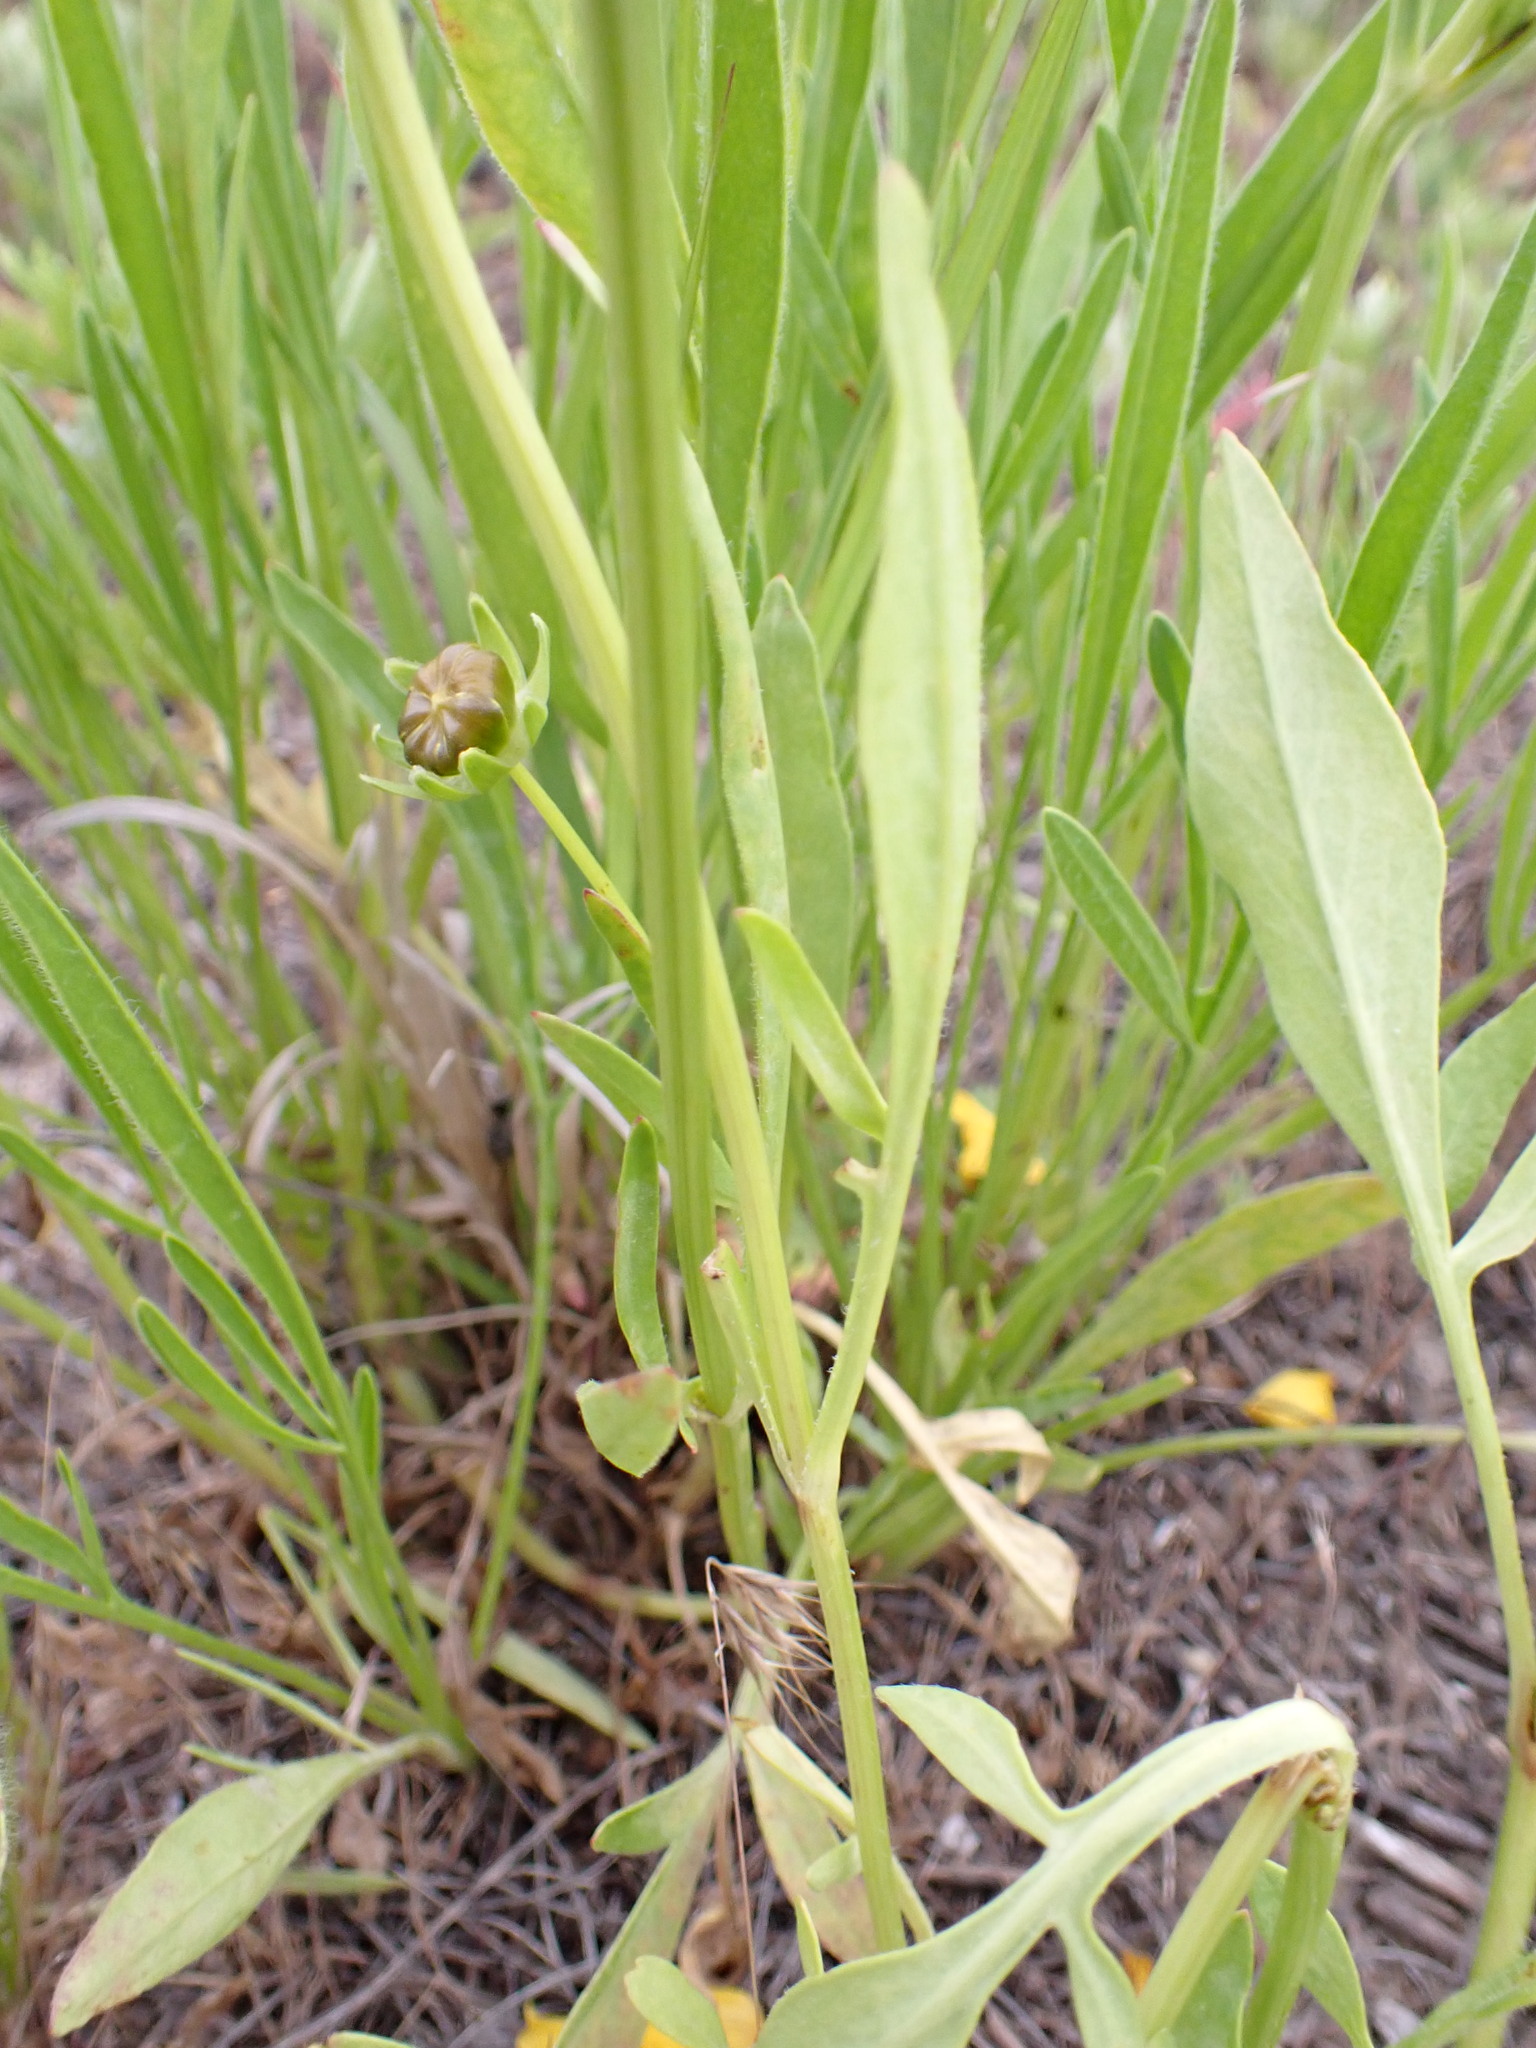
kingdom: Plantae
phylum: Tracheophyta
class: Magnoliopsida
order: Asterales
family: Asteraceae
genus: Coreopsis
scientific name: Coreopsis lanceolata
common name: Garden coreopsis
